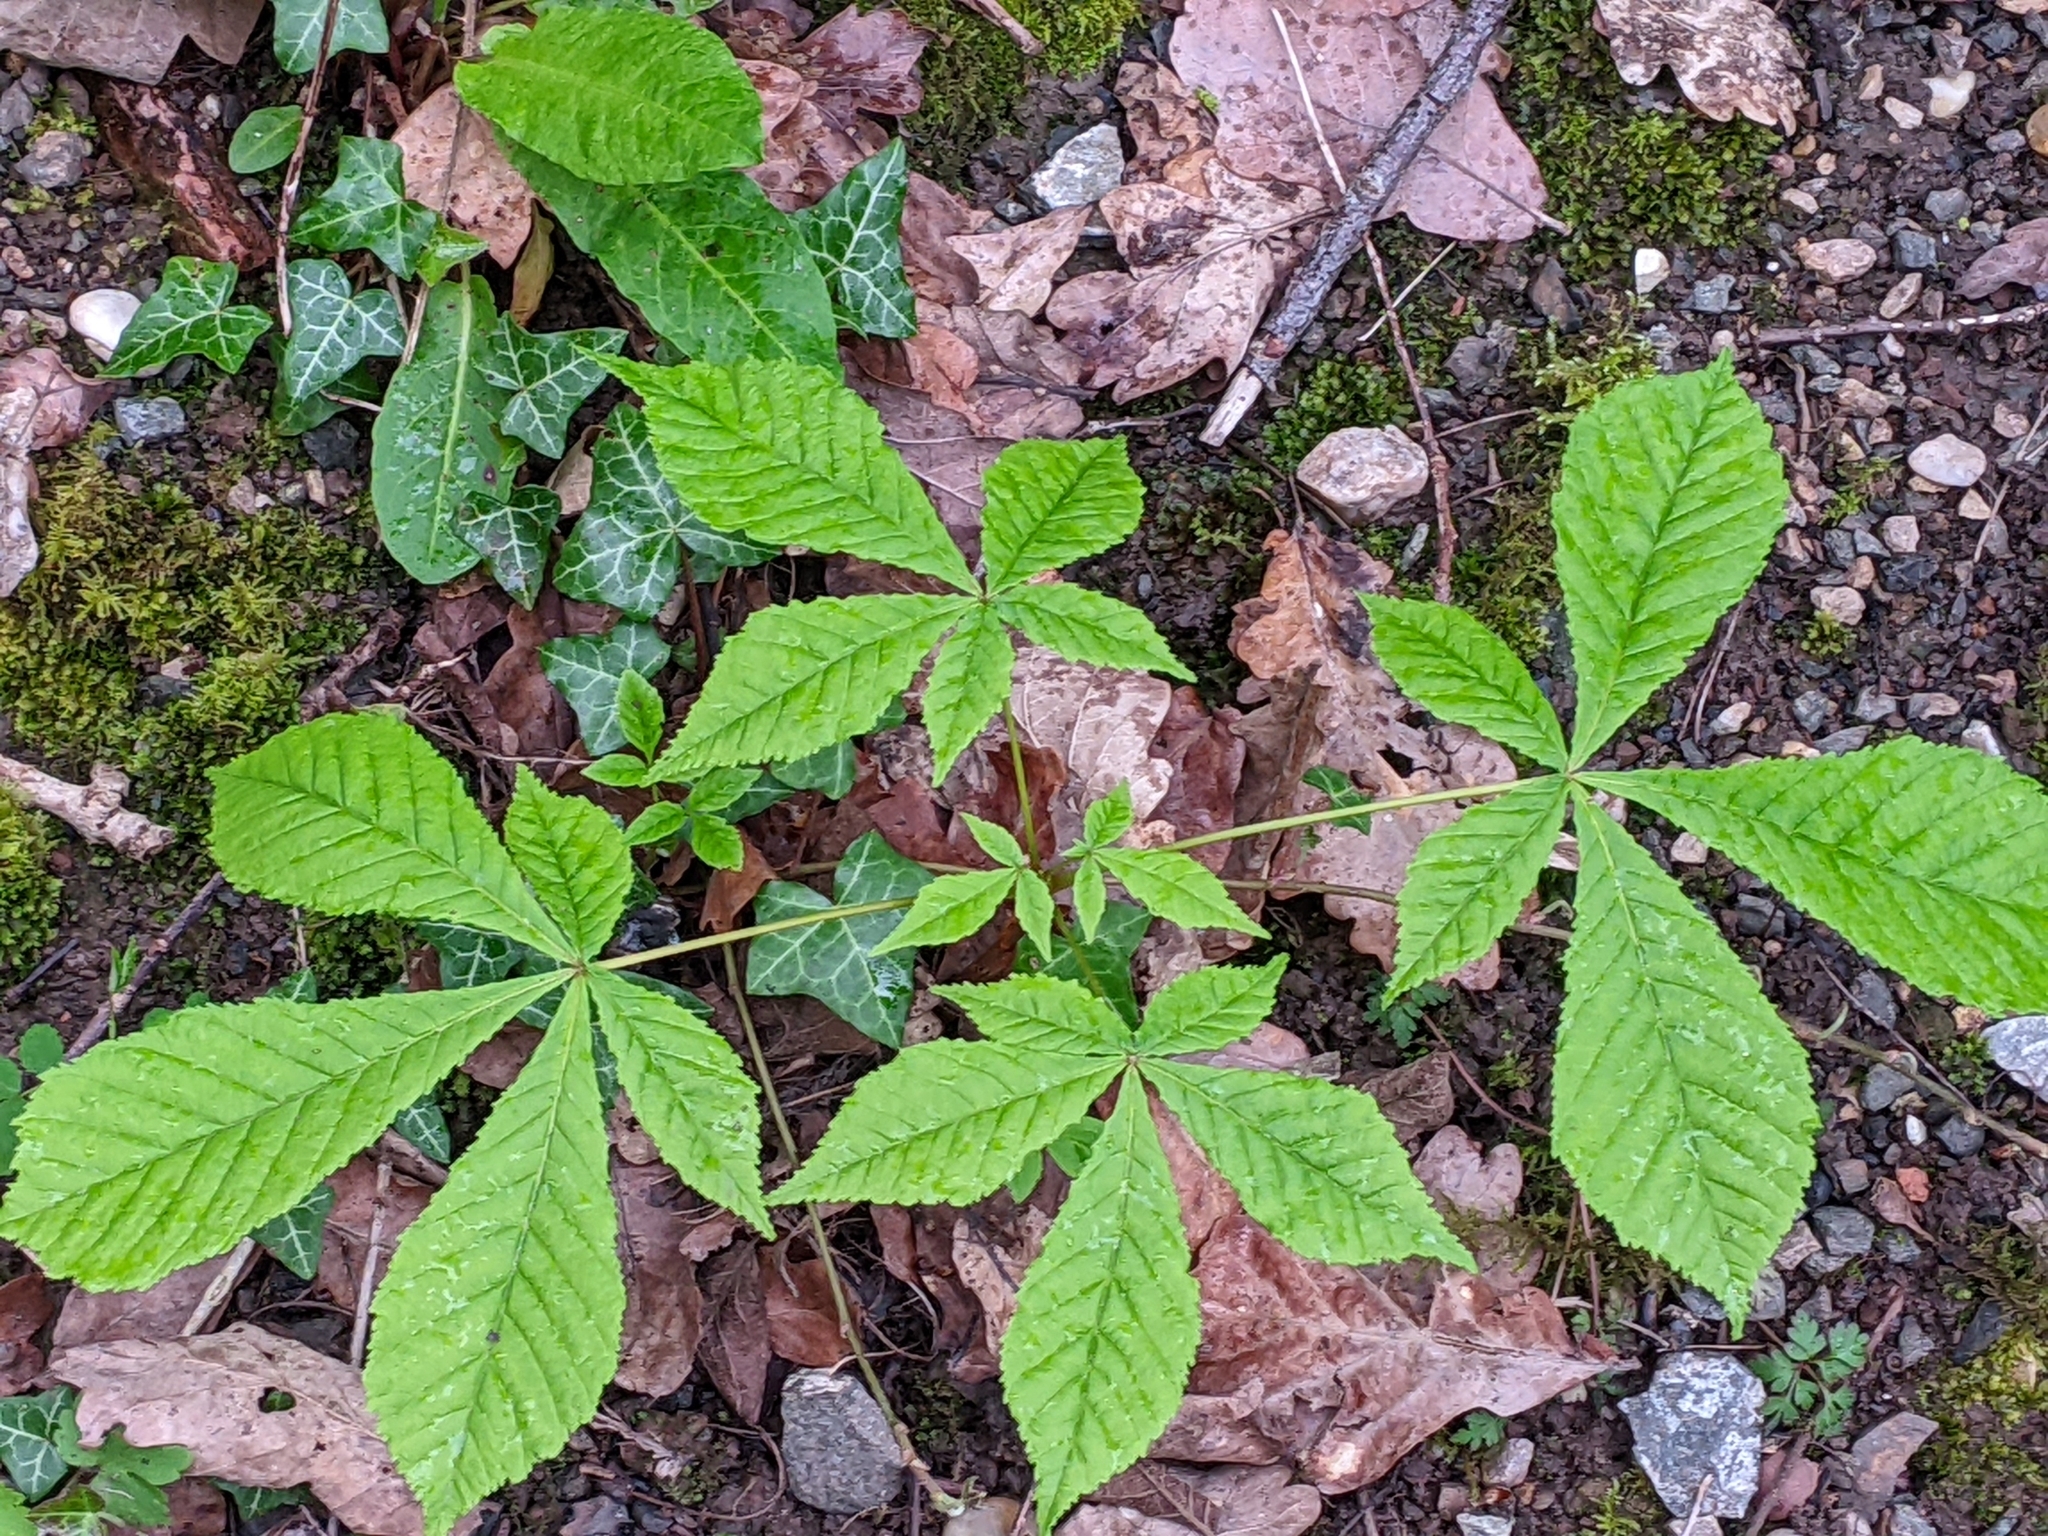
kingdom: Plantae
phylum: Tracheophyta
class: Magnoliopsida
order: Sapindales
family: Sapindaceae
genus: Aesculus
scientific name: Aesculus hippocastanum
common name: Horse-chestnut
